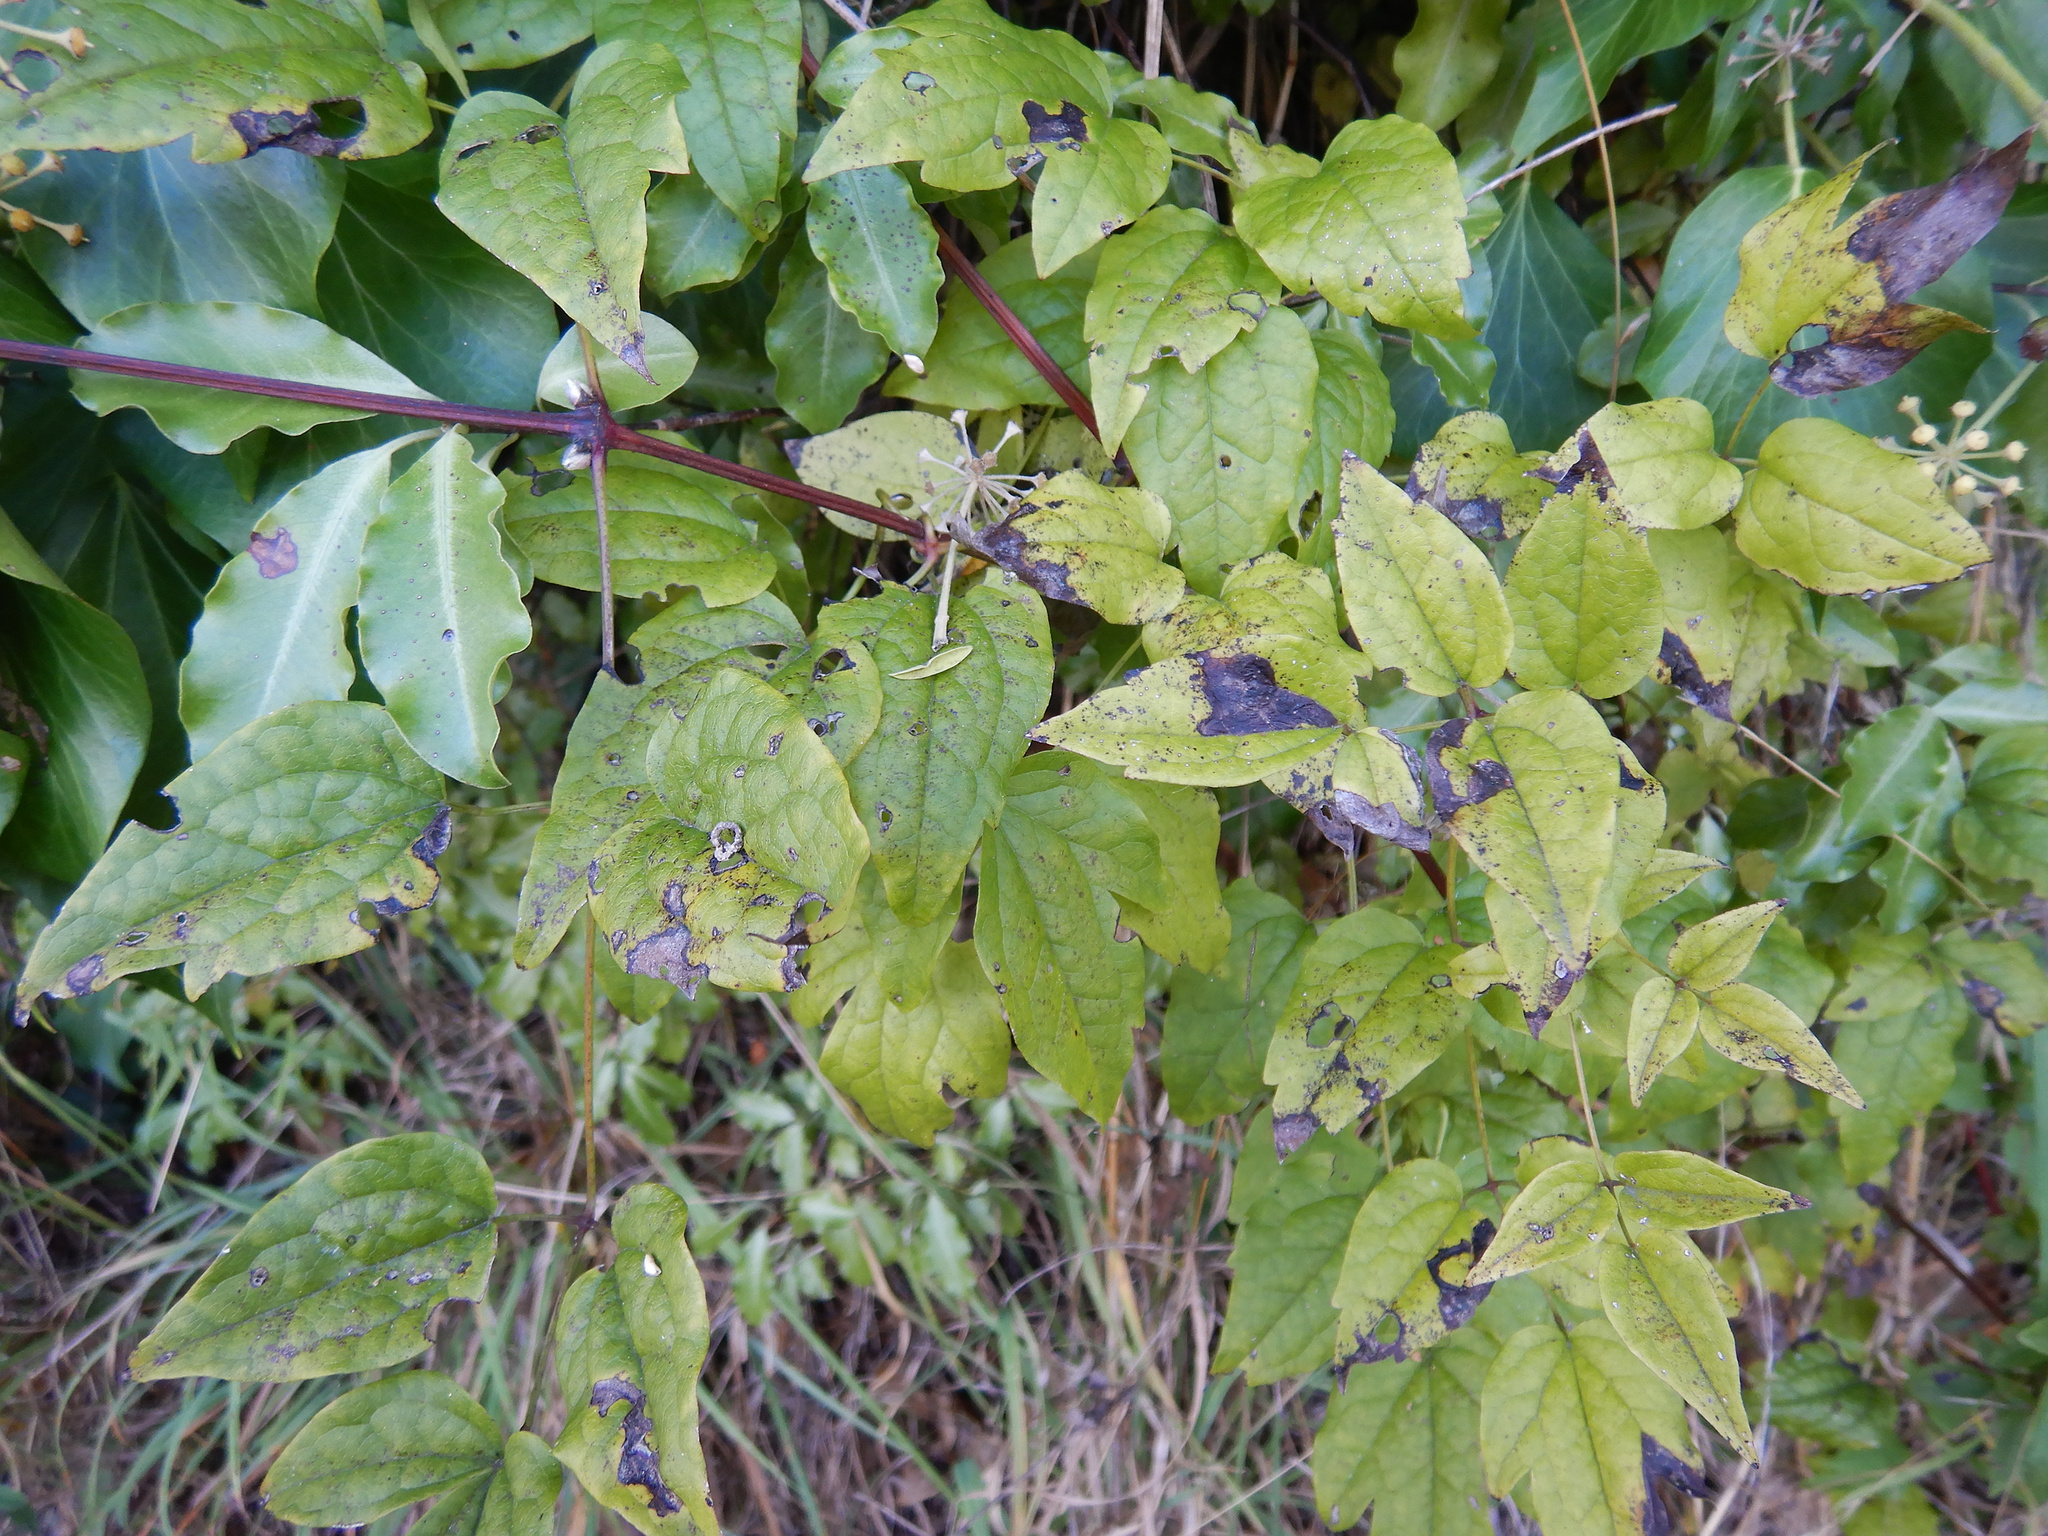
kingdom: Plantae
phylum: Tracheophyta
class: Magnoliopsida
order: Ranunculales
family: Ranunculaceae
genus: Clematis
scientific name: Clematis vitalba
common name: Evergreen clematis
